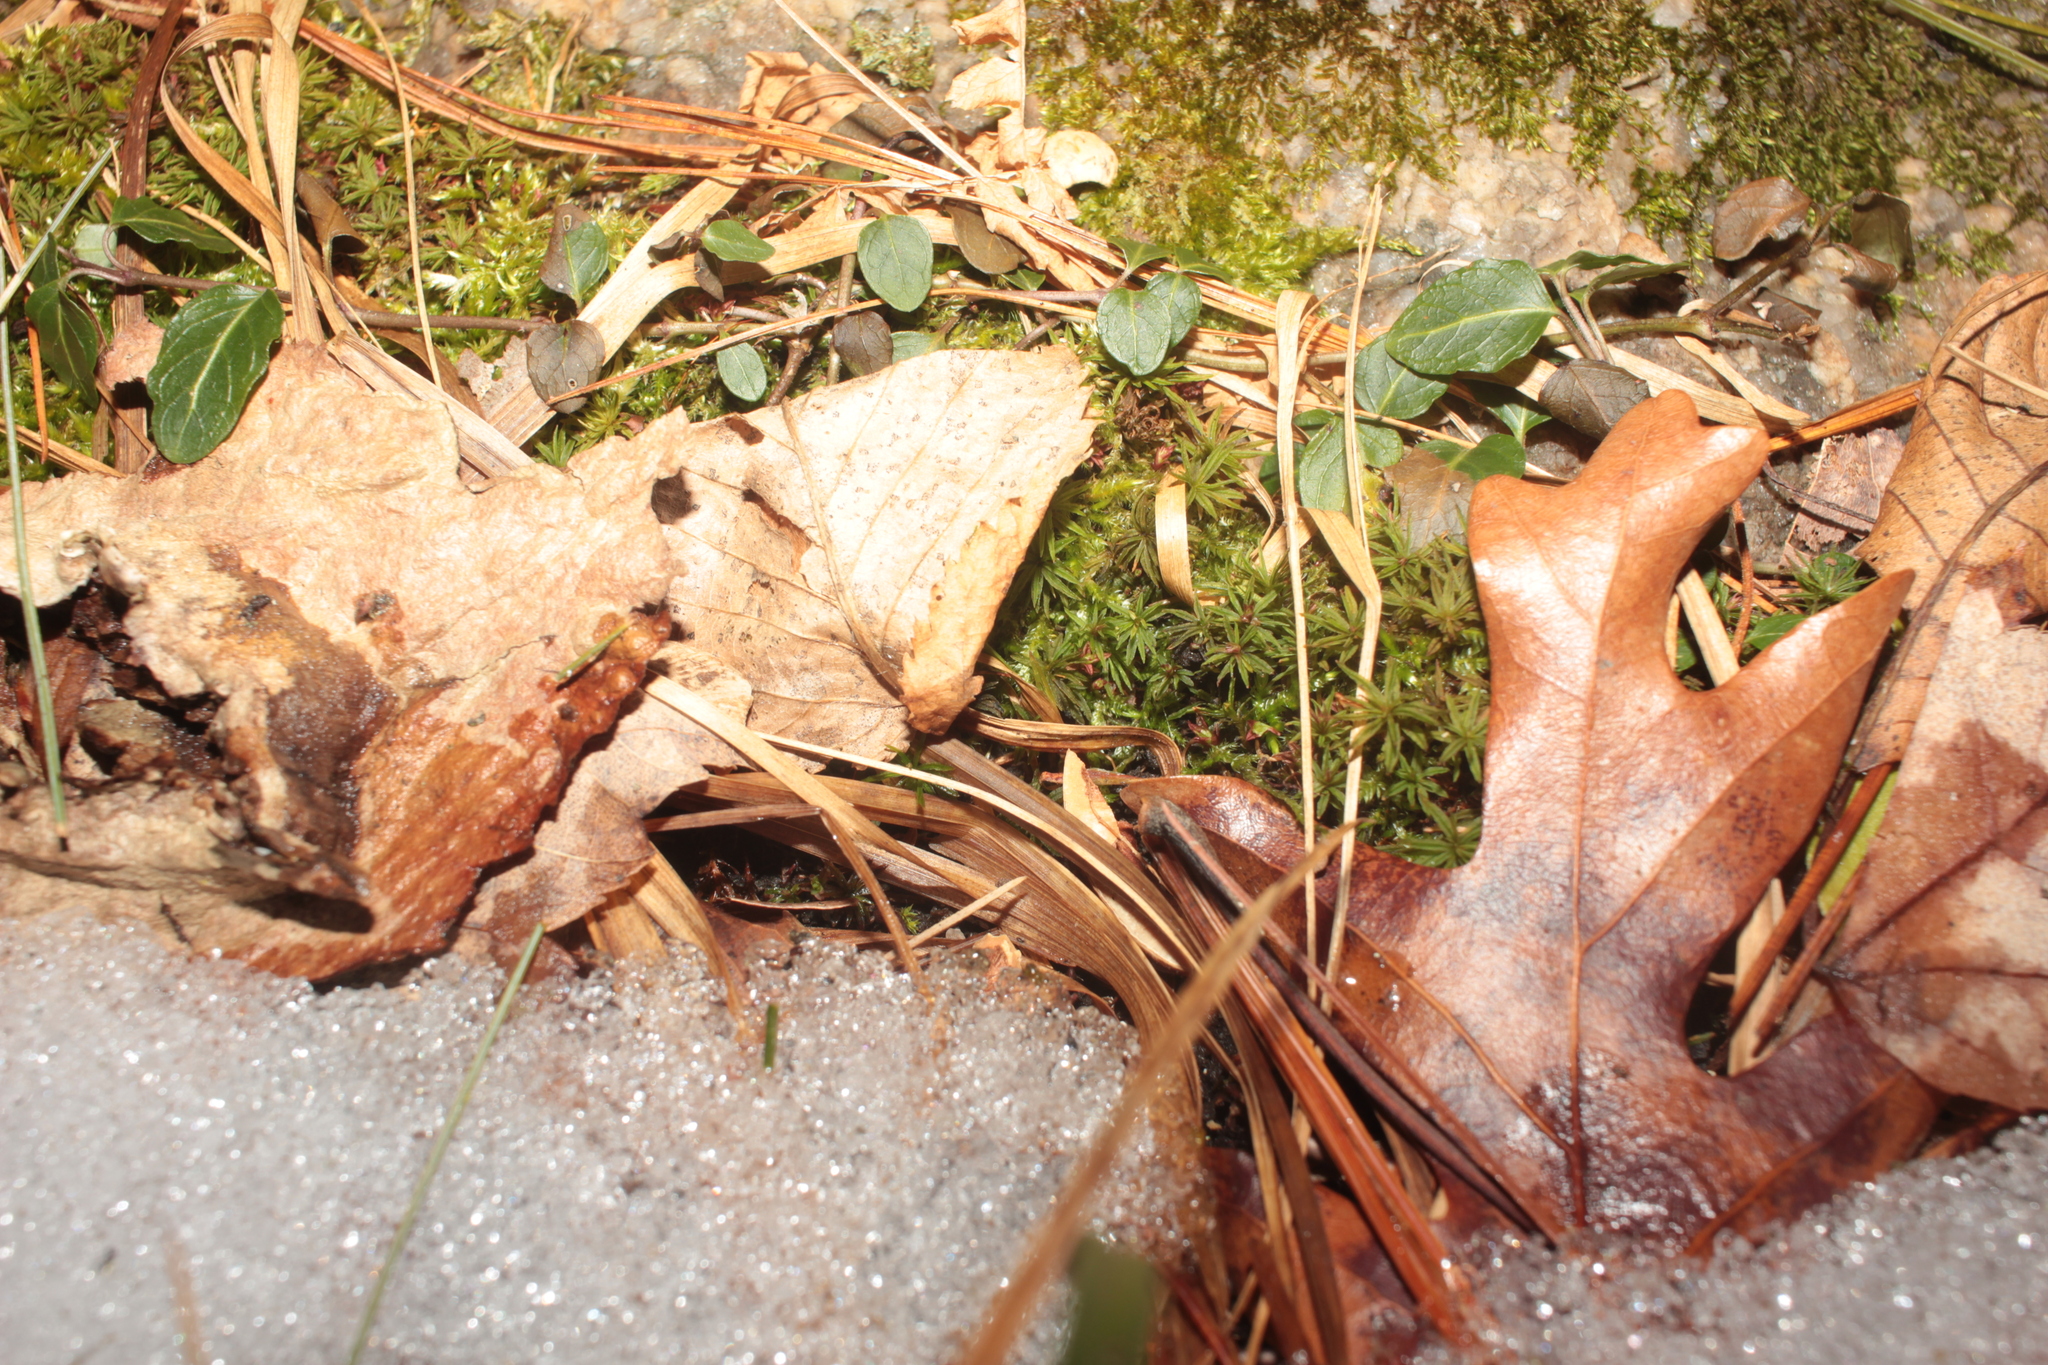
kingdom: Plantae
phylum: Tracheophyta
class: Magnoliopsida
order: Gentianales
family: Rubiaceae
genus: Mitchella
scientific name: Mitchella repens
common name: Partridge-berry
